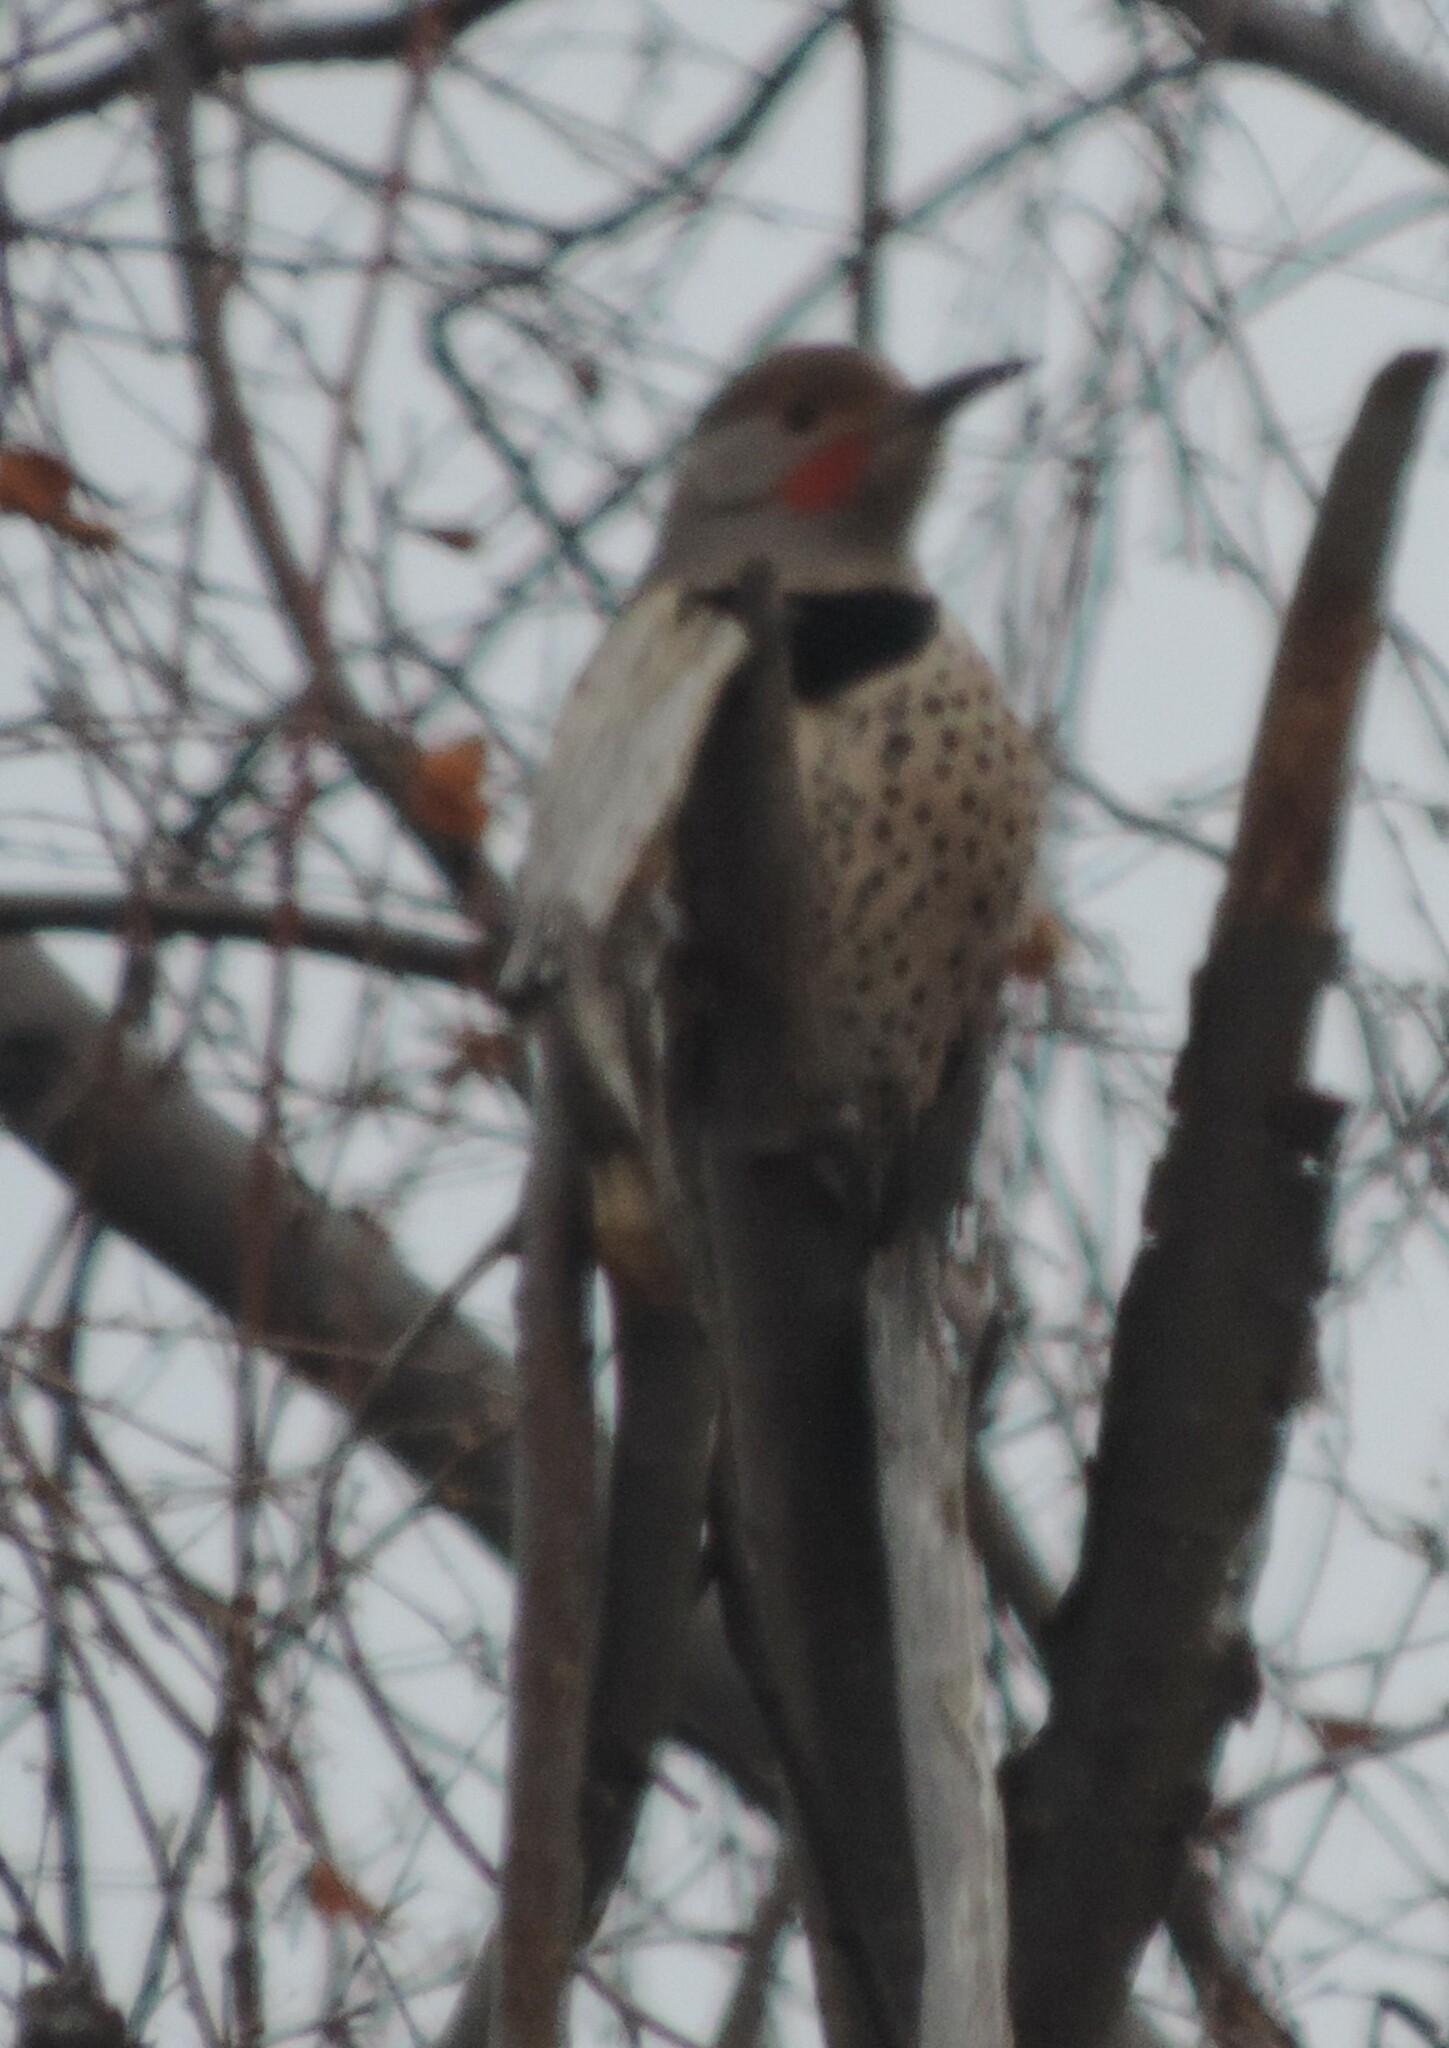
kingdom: Animalia
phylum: Chordata
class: Aves
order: Piciformes
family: Picidae
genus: Colaptes
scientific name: Colaptes auratus
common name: Northern flicker
